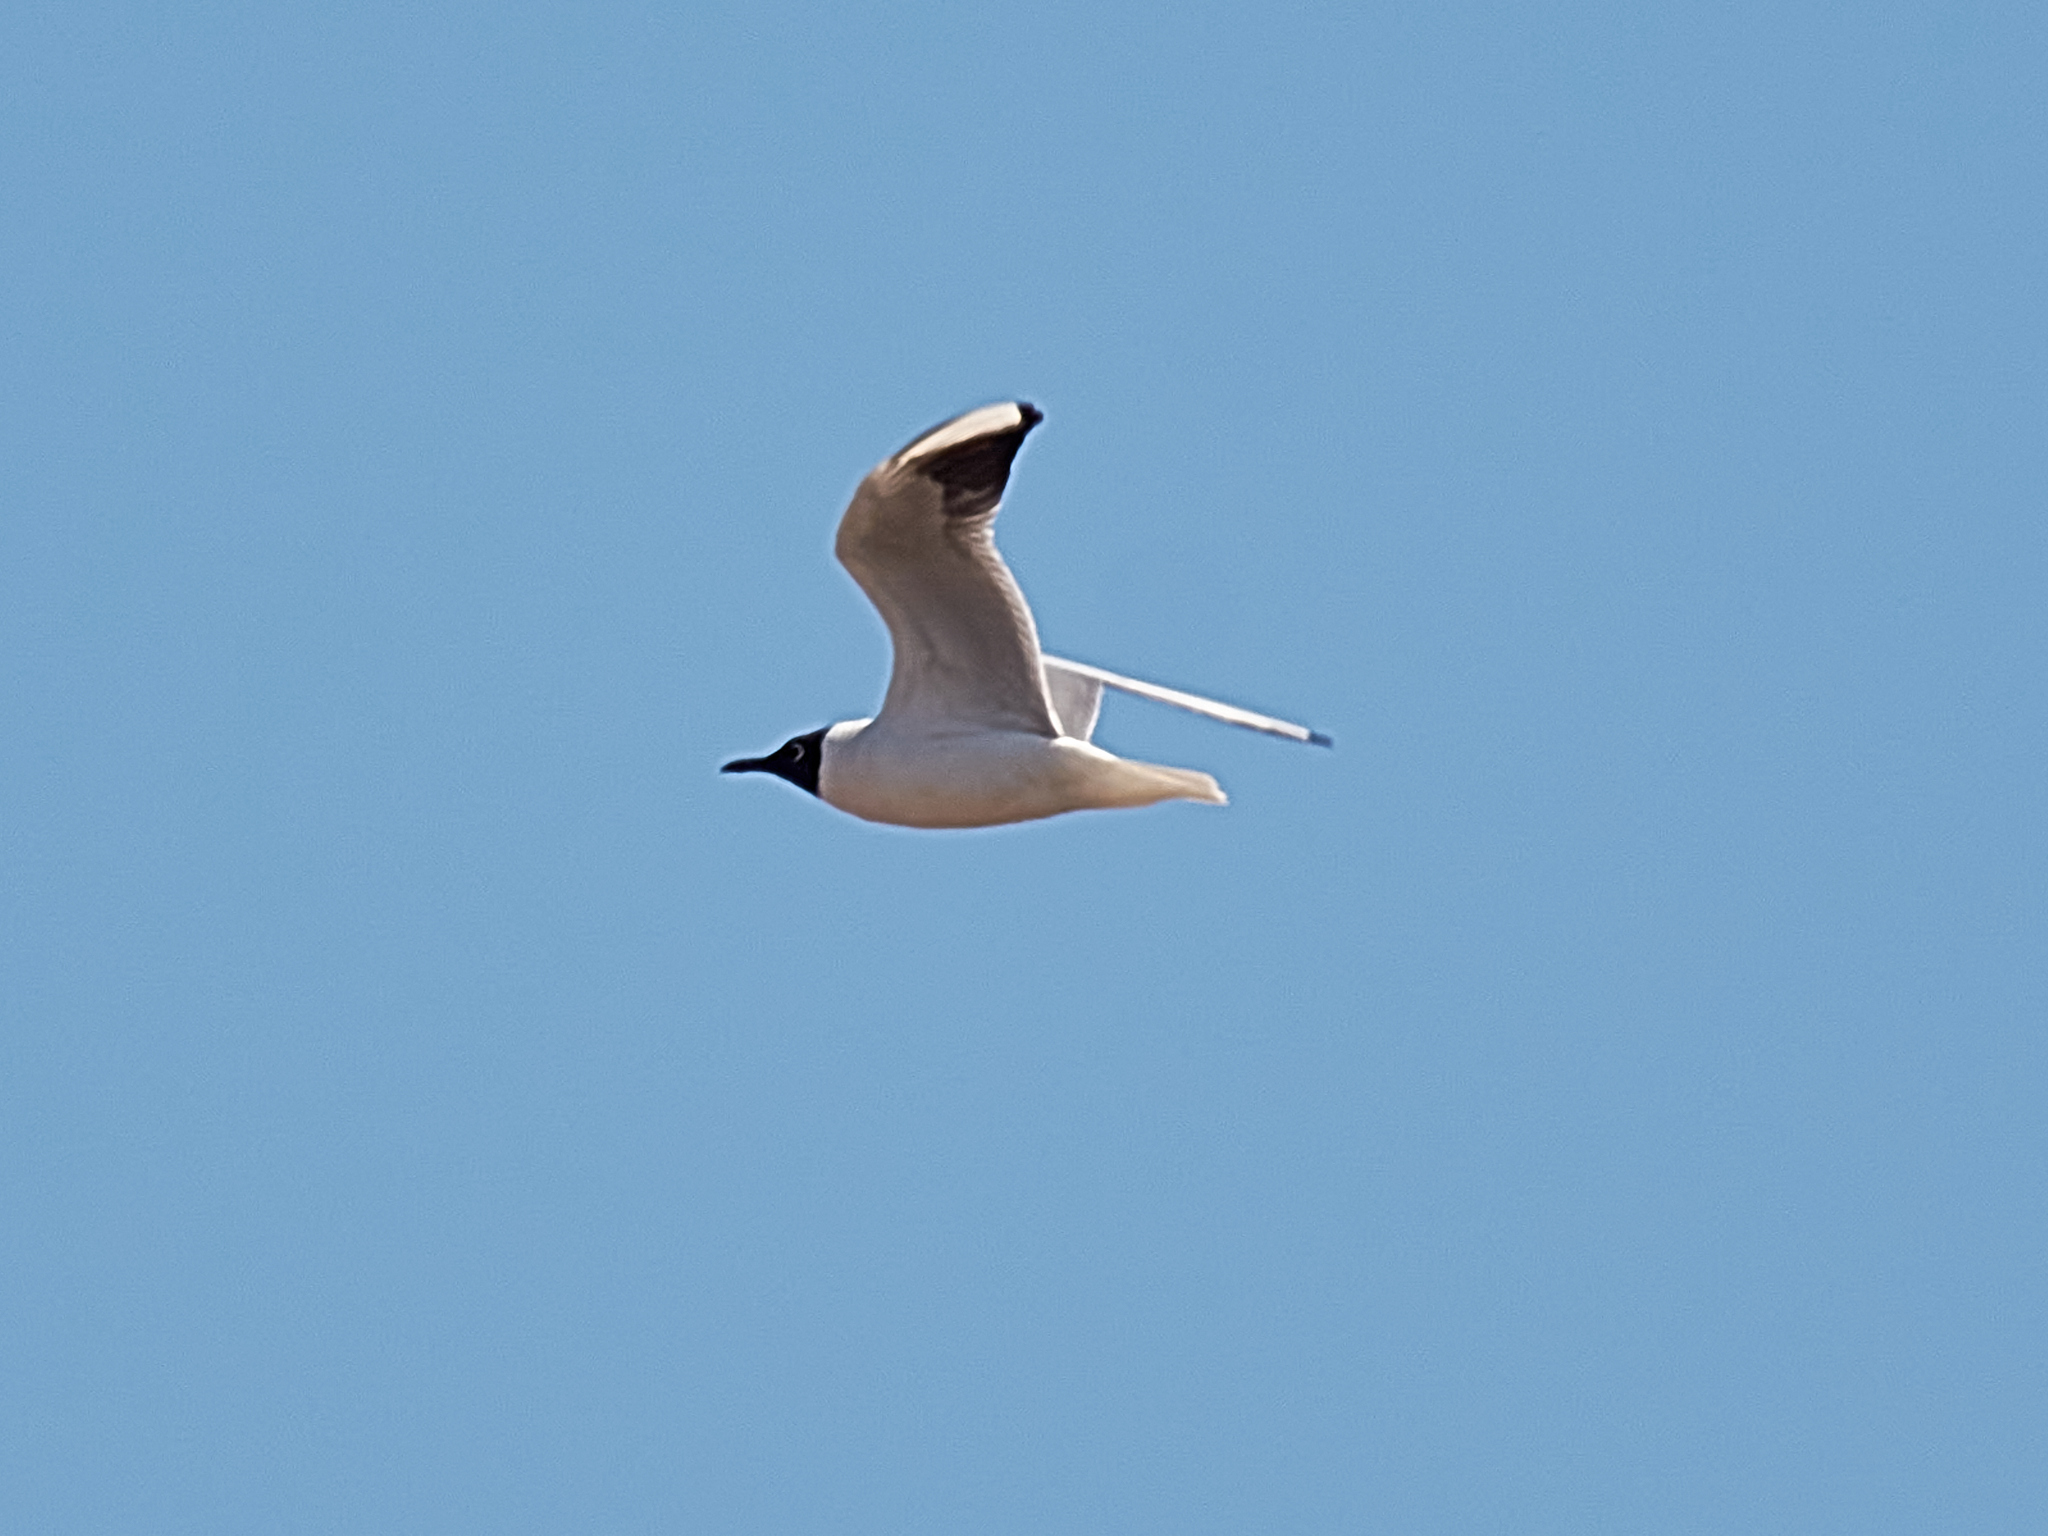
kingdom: Animalia
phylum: Chordata
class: Aves
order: Charadriiformes
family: Laridae
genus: Chroicocephalus
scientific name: Chroicocephalus ridibundus
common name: Black-headed gull
